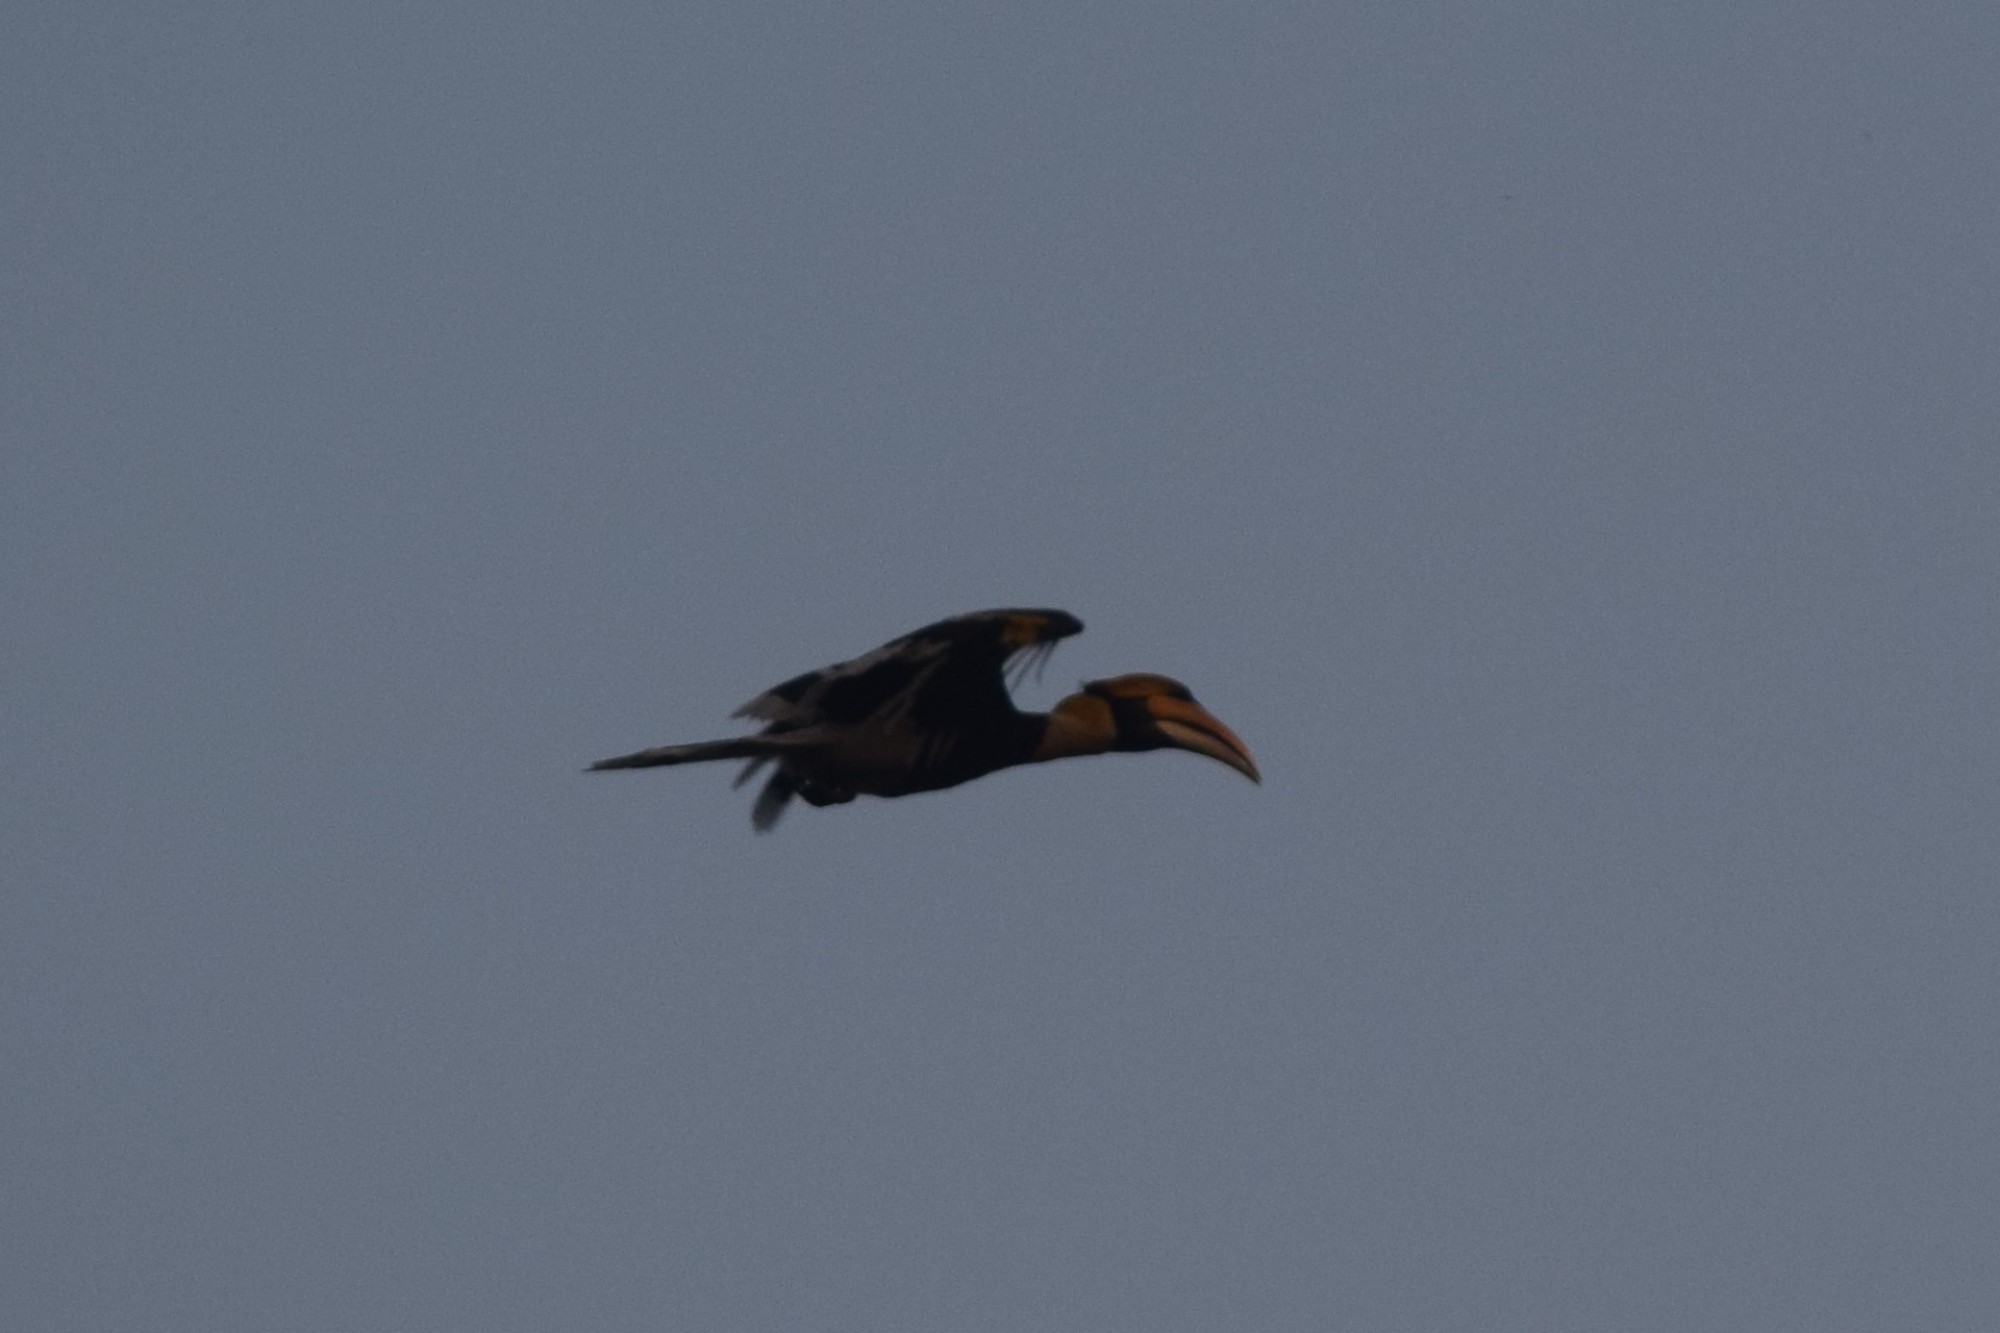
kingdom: Animalia
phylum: Chordata
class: Aves
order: Bucerotiformes
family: Bucerotidae
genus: Buceros
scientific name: Buceros bicornis
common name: Great hornbill
